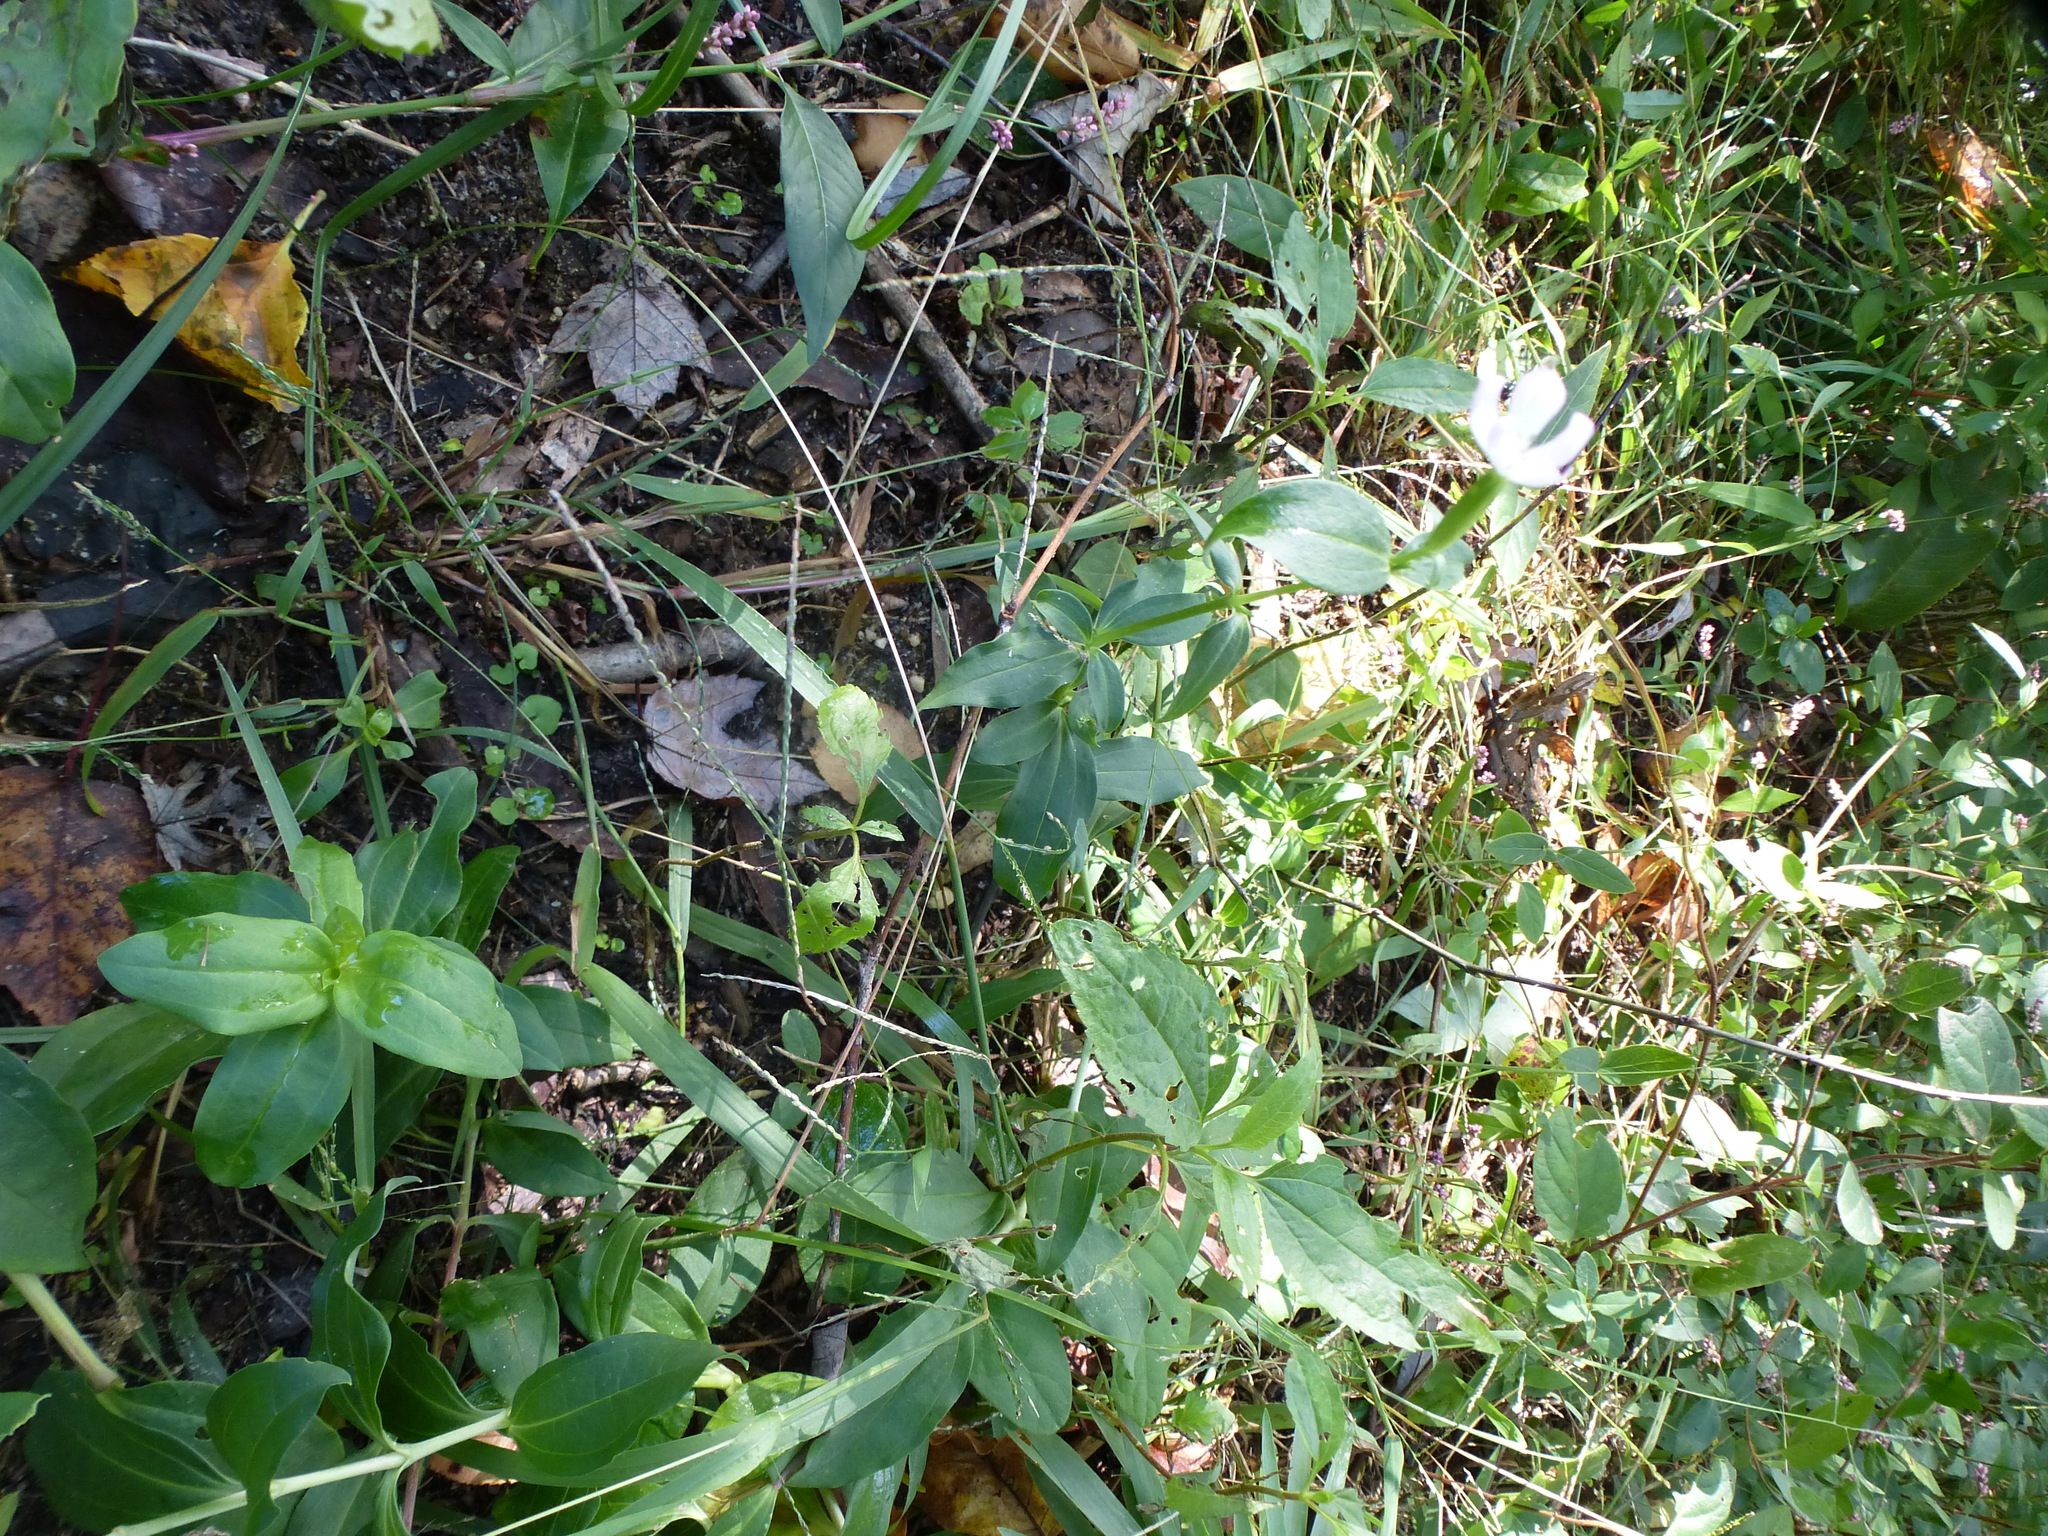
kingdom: Plantae
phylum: Tracheophyta
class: Magnoliopsida
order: Dipsacales
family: Caprifoliaceae
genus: Lonicera
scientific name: Lonicera japonica
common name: Japanese honeysuckle
